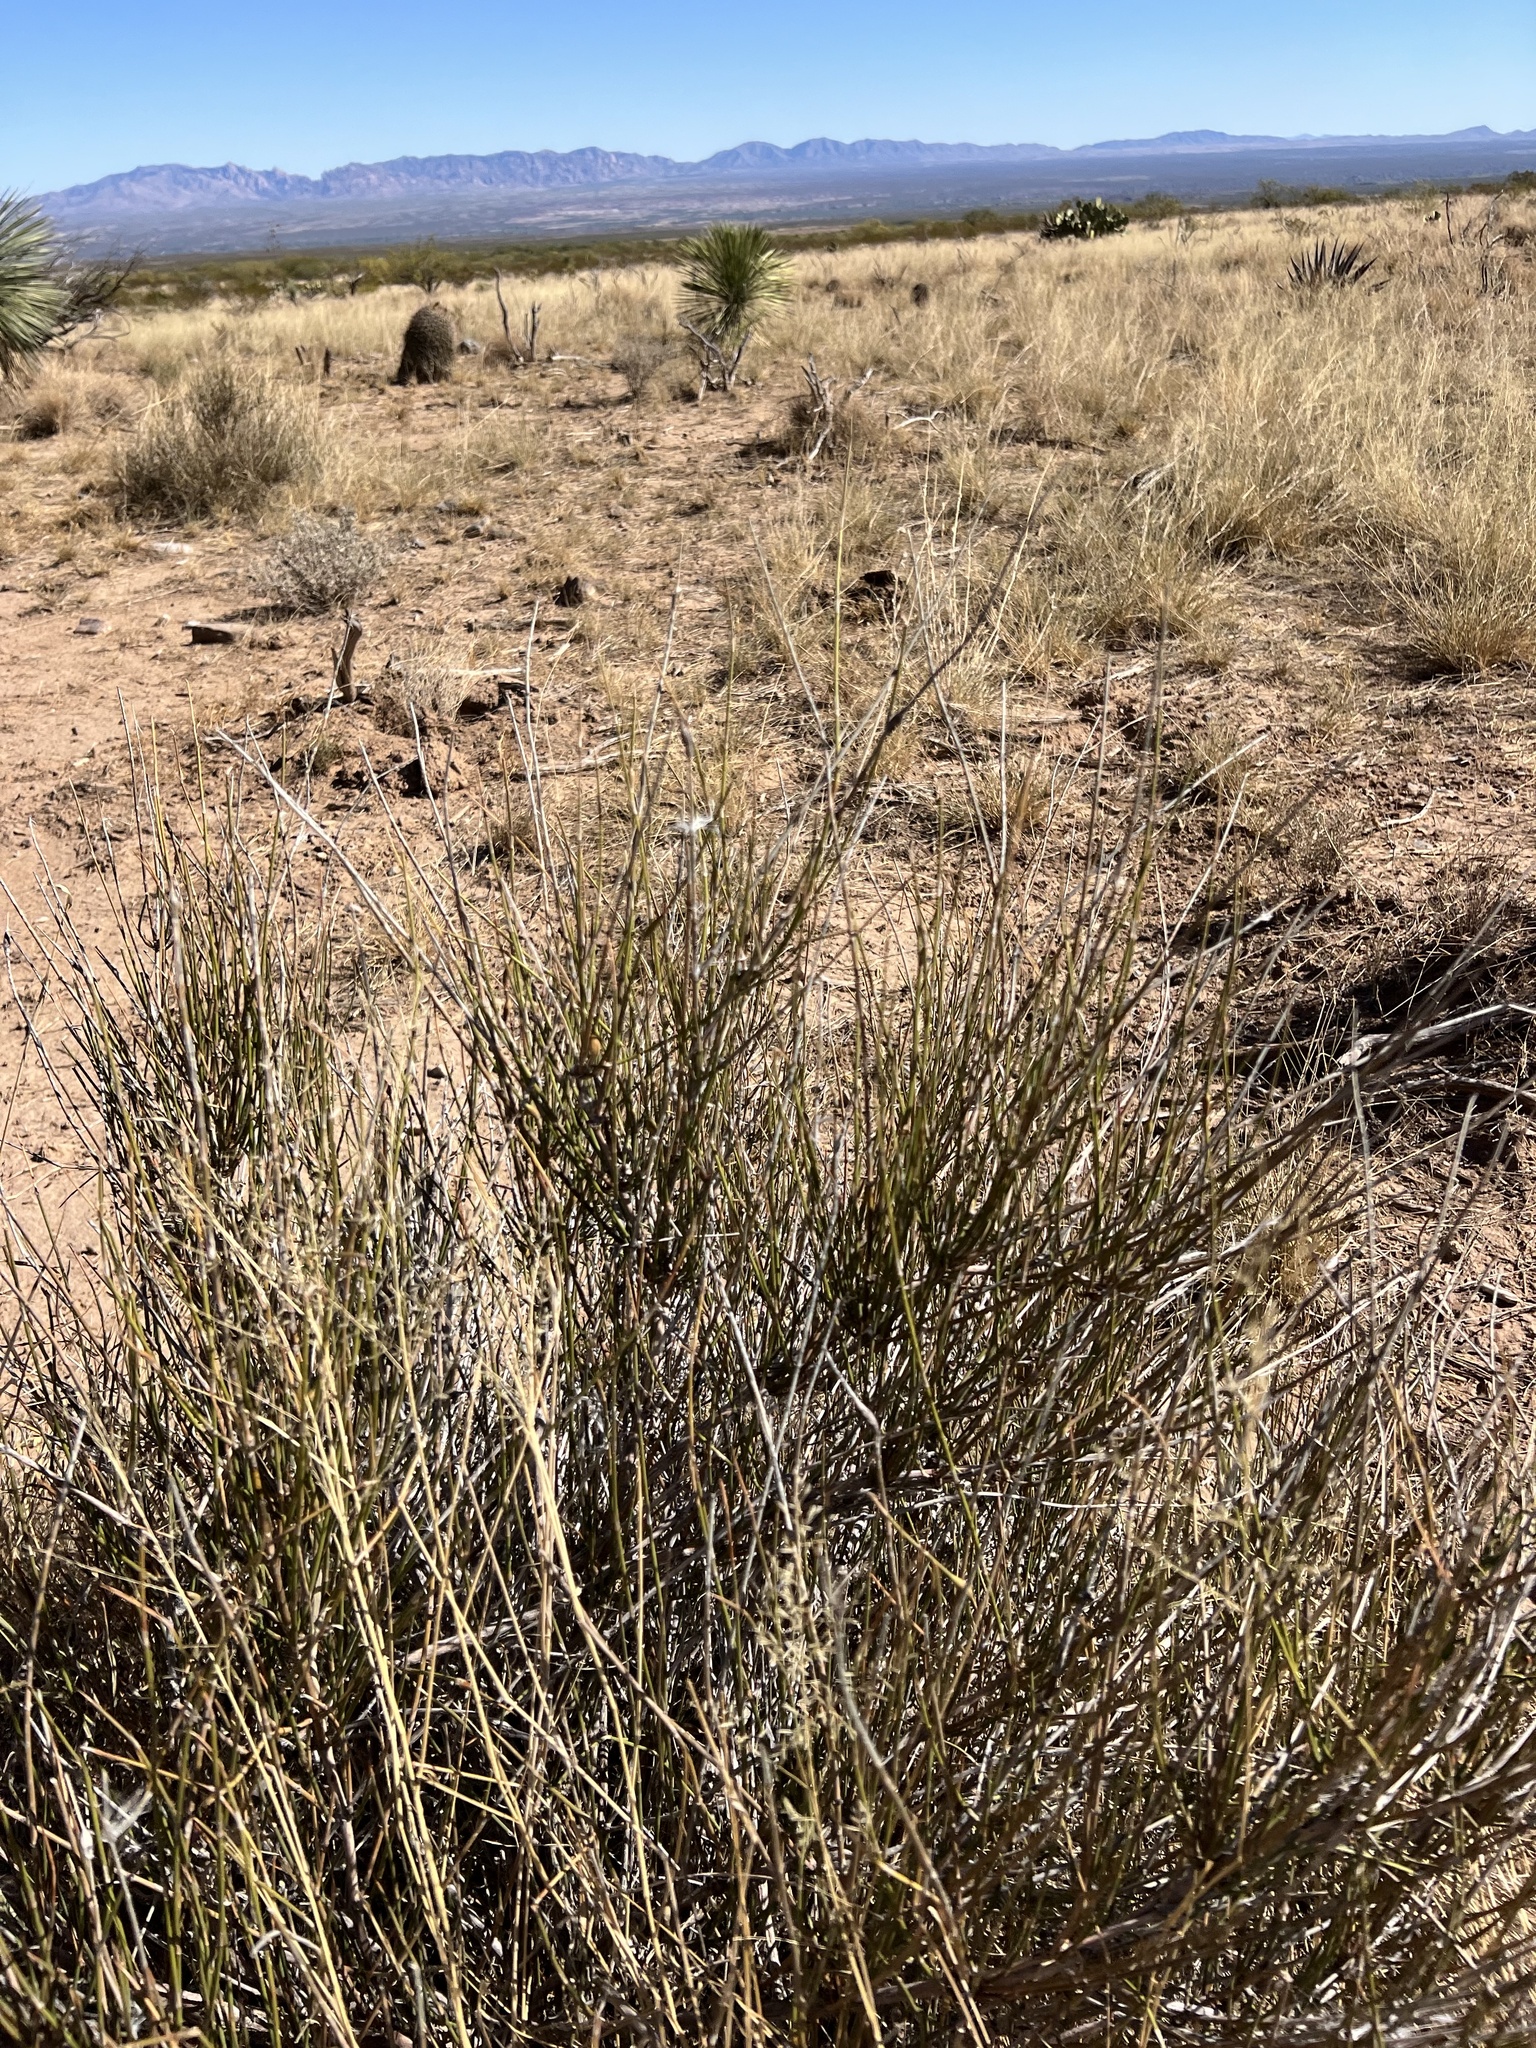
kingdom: Plantae
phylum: Tracheophyta
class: Gnetopsida
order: Ephedrales
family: Ephedraceae
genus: Ephedra
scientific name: Ephedra trifurca
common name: Mexican-tea
